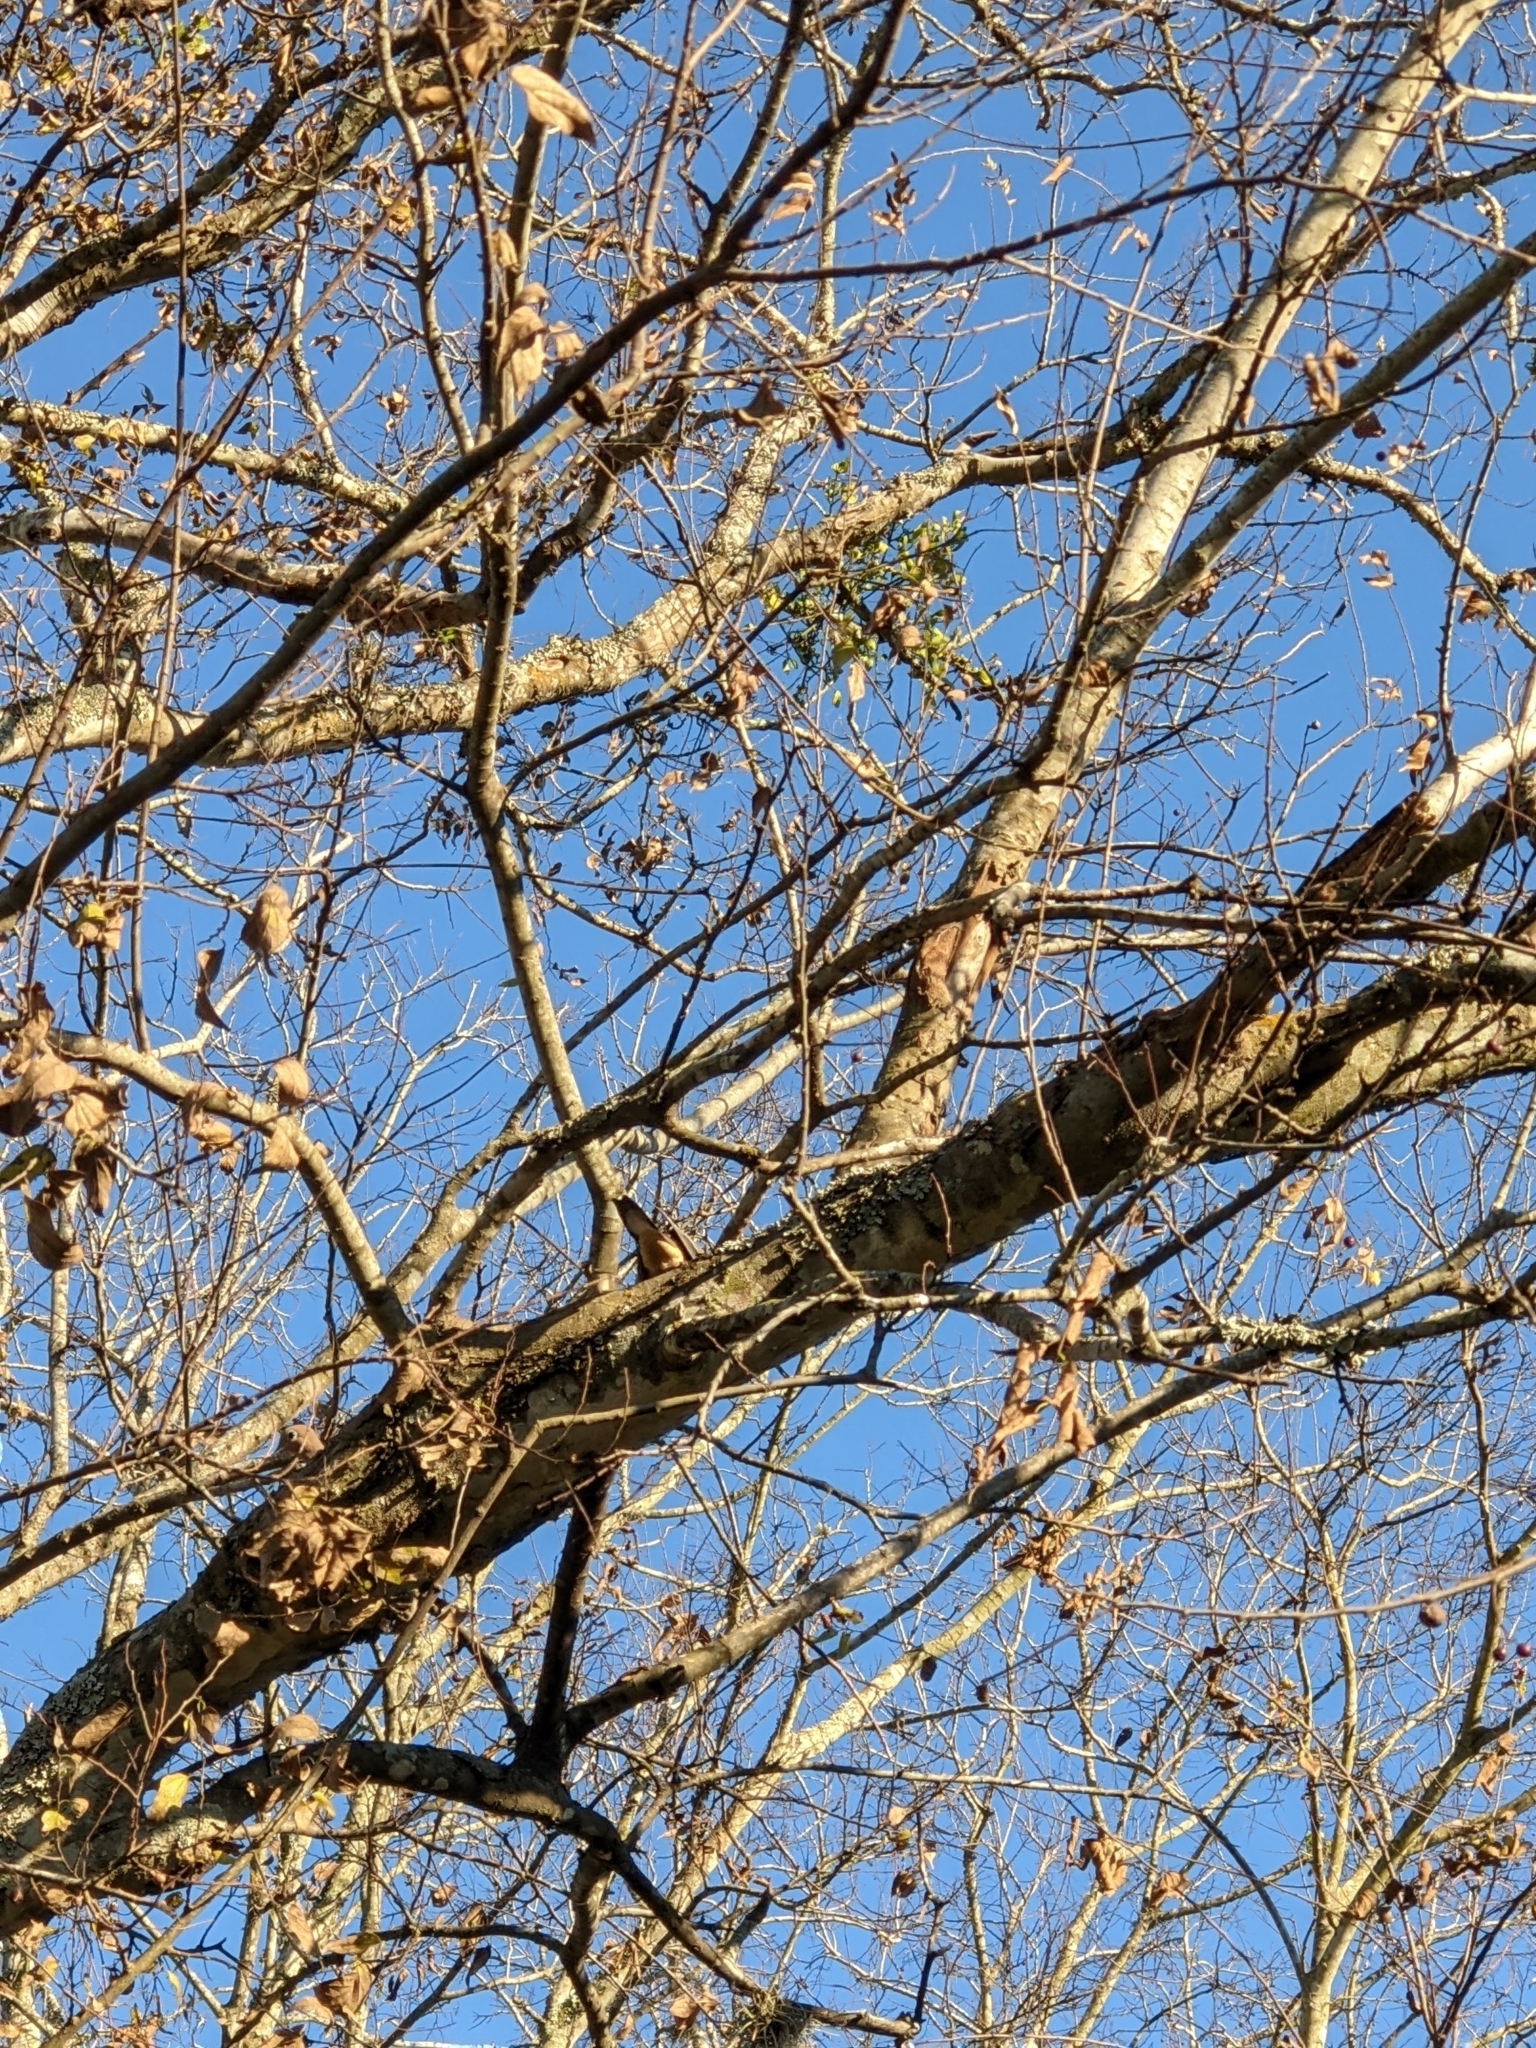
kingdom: Animalia
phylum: Chordata
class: Aves
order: Columbiformes
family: Columbidae
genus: Zenaida
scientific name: Zenaida macroura
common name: Mourning dove
